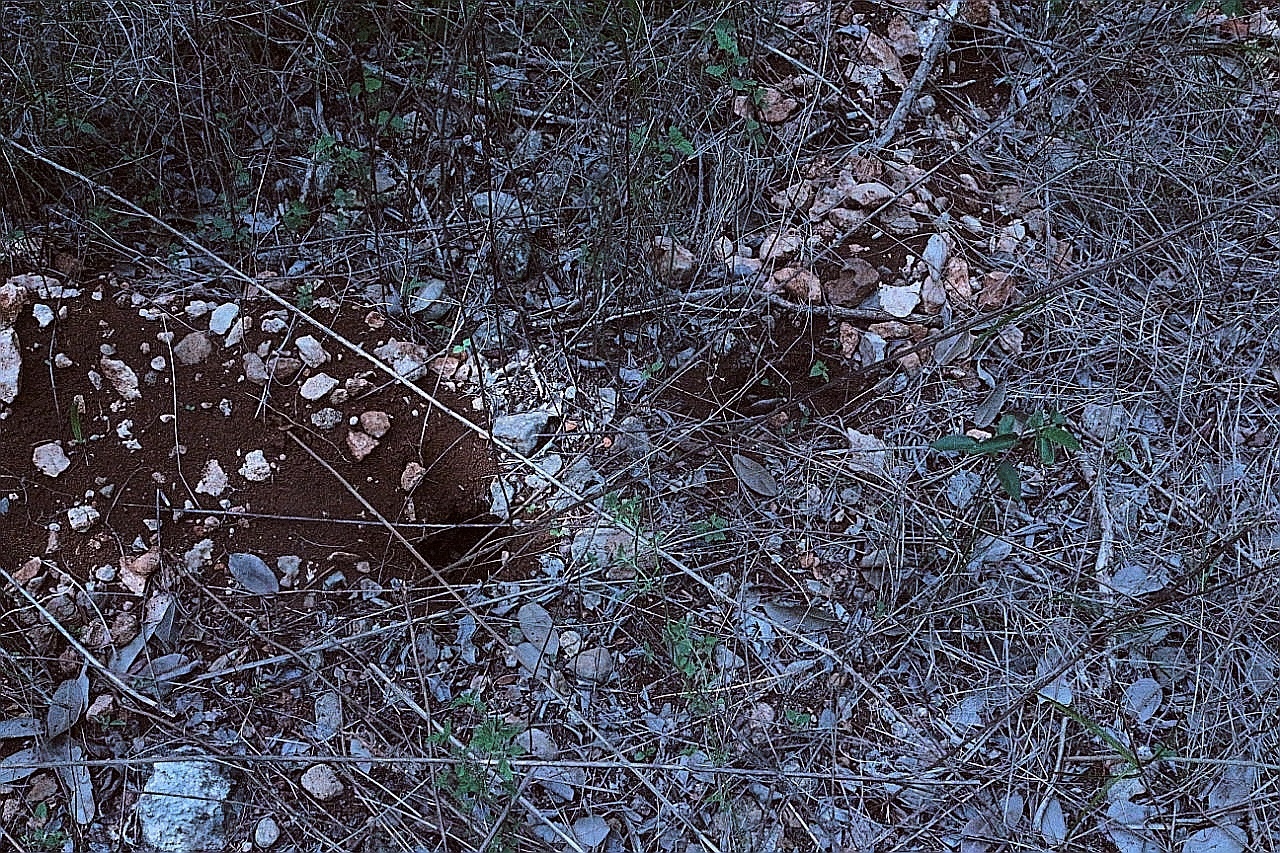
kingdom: Animalia
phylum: Chordata
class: Mammalia
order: Artiodactyla
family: Tayassuidae
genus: Pecari
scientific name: Pecari tajacu
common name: Collared peccary
